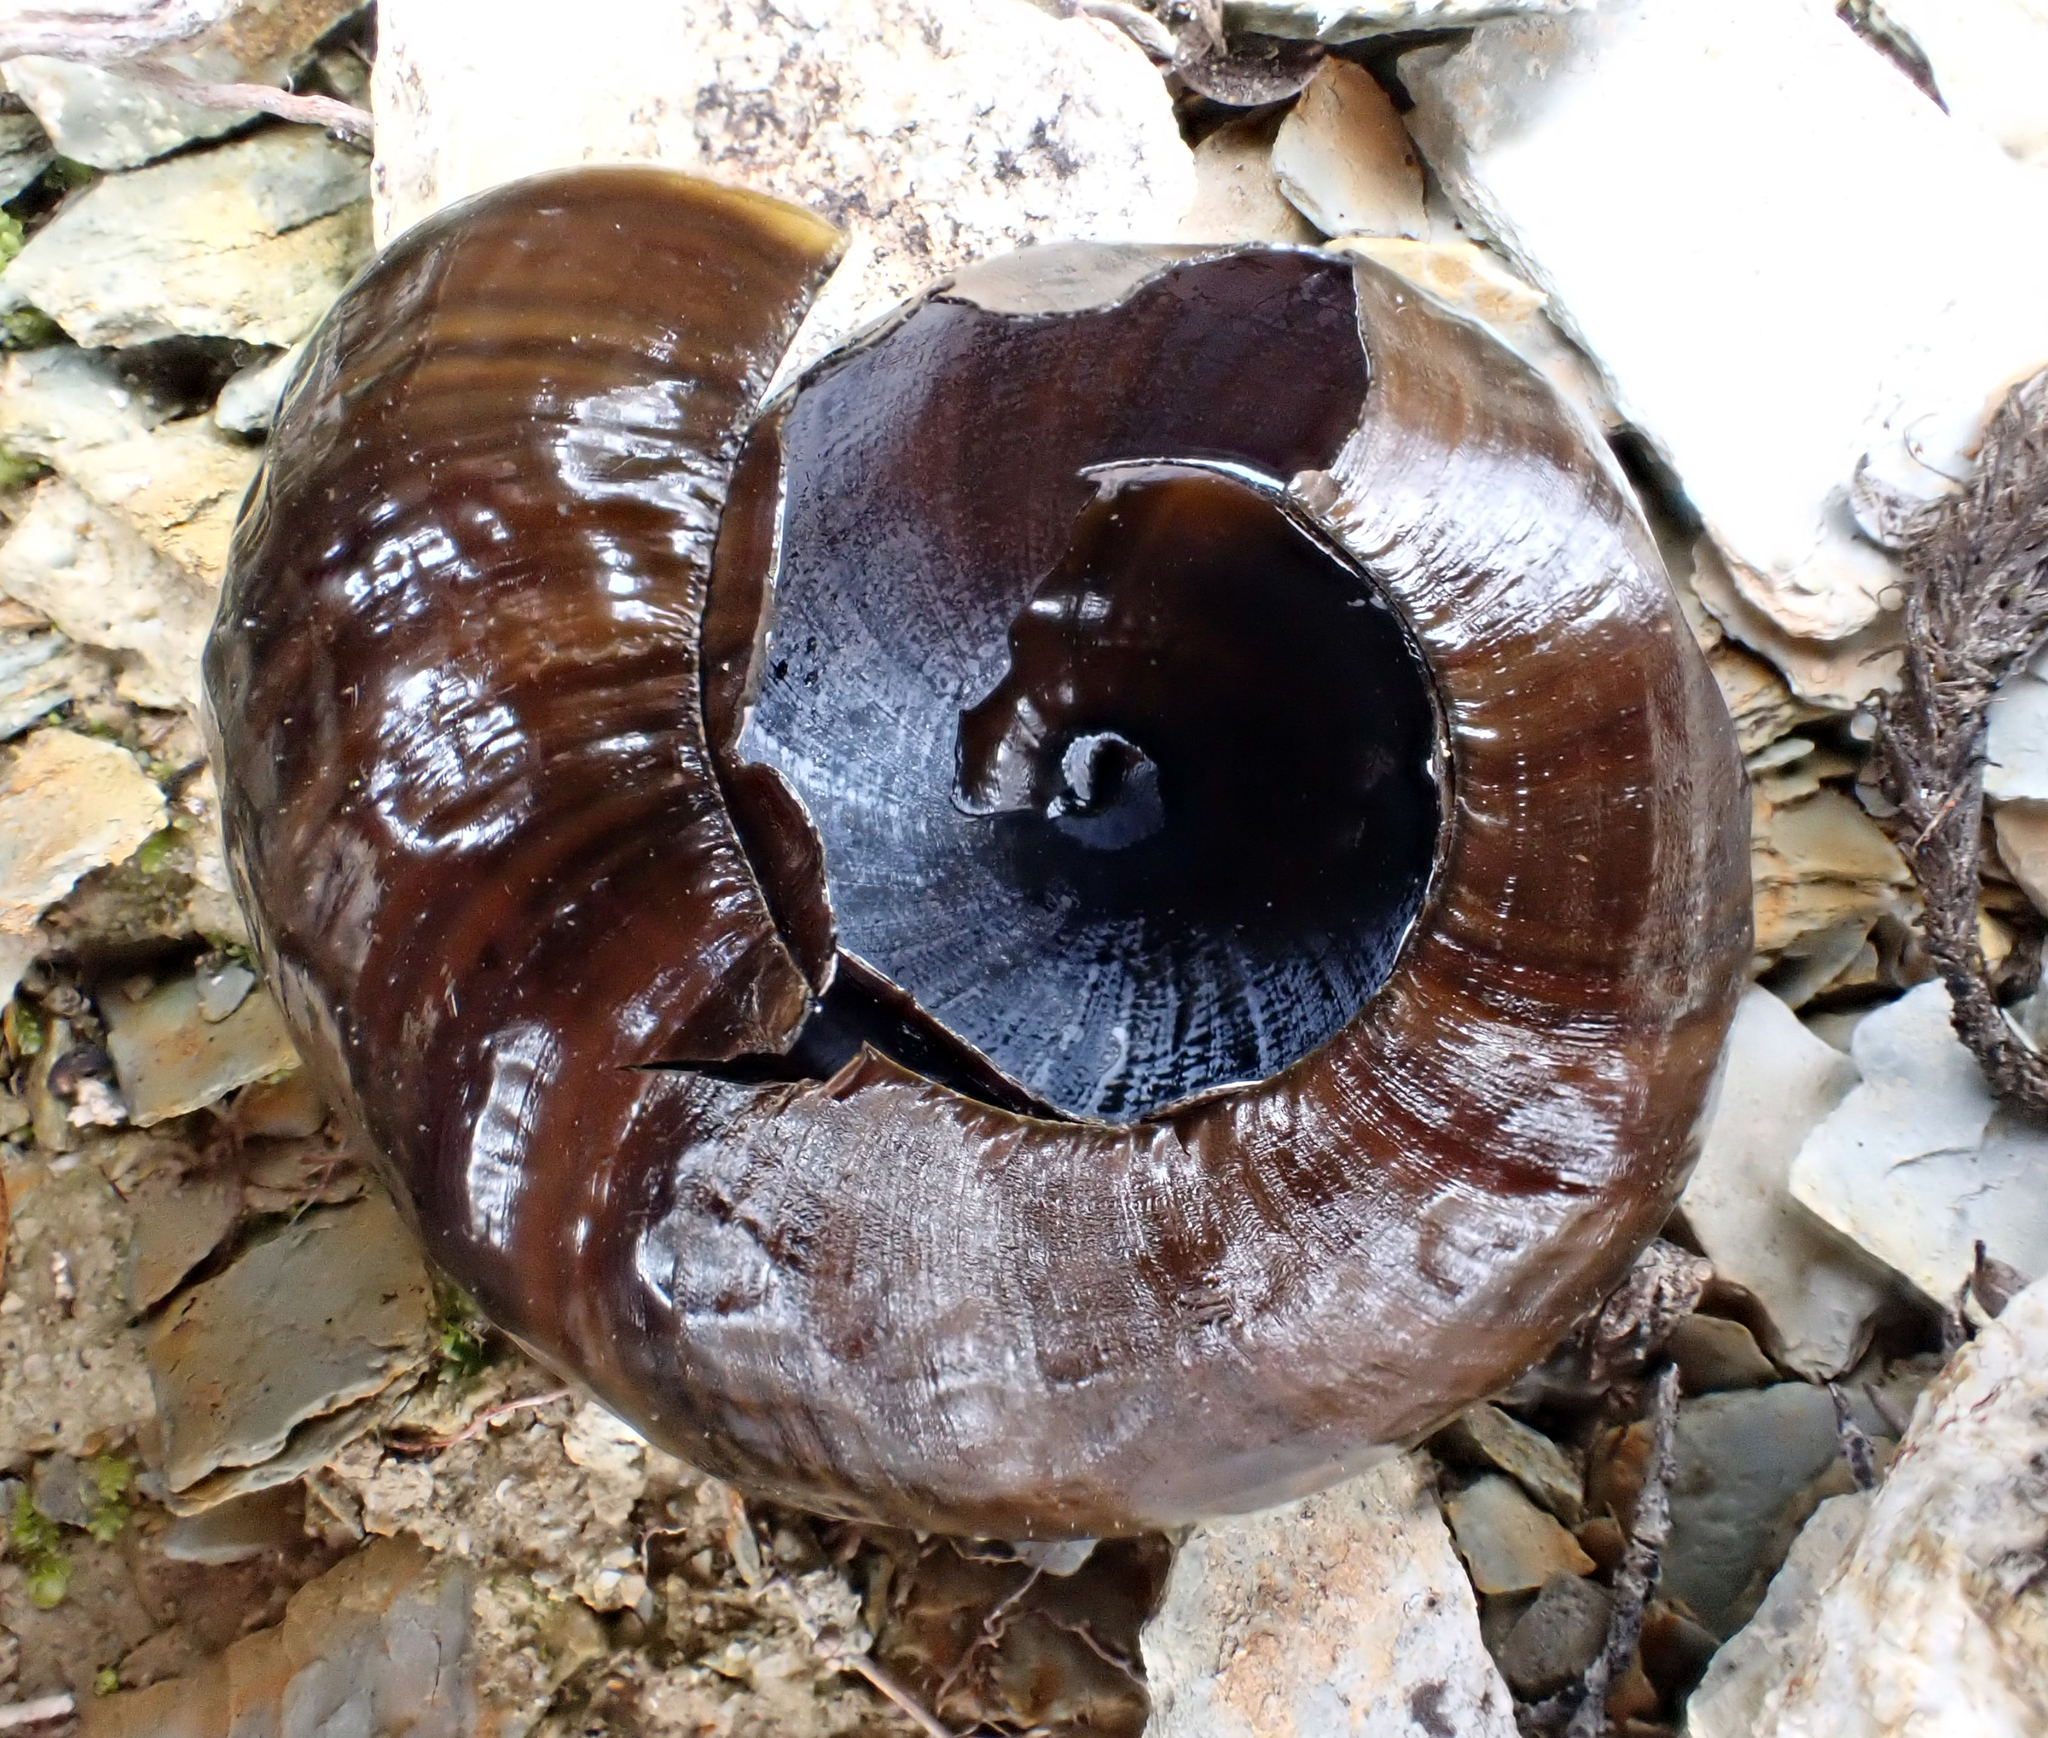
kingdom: Animalia
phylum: Mollusca
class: Gastropoda
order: Stylommatophora
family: Rhytididae
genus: Powelliphanta
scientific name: Powelliphanta patrickensis
